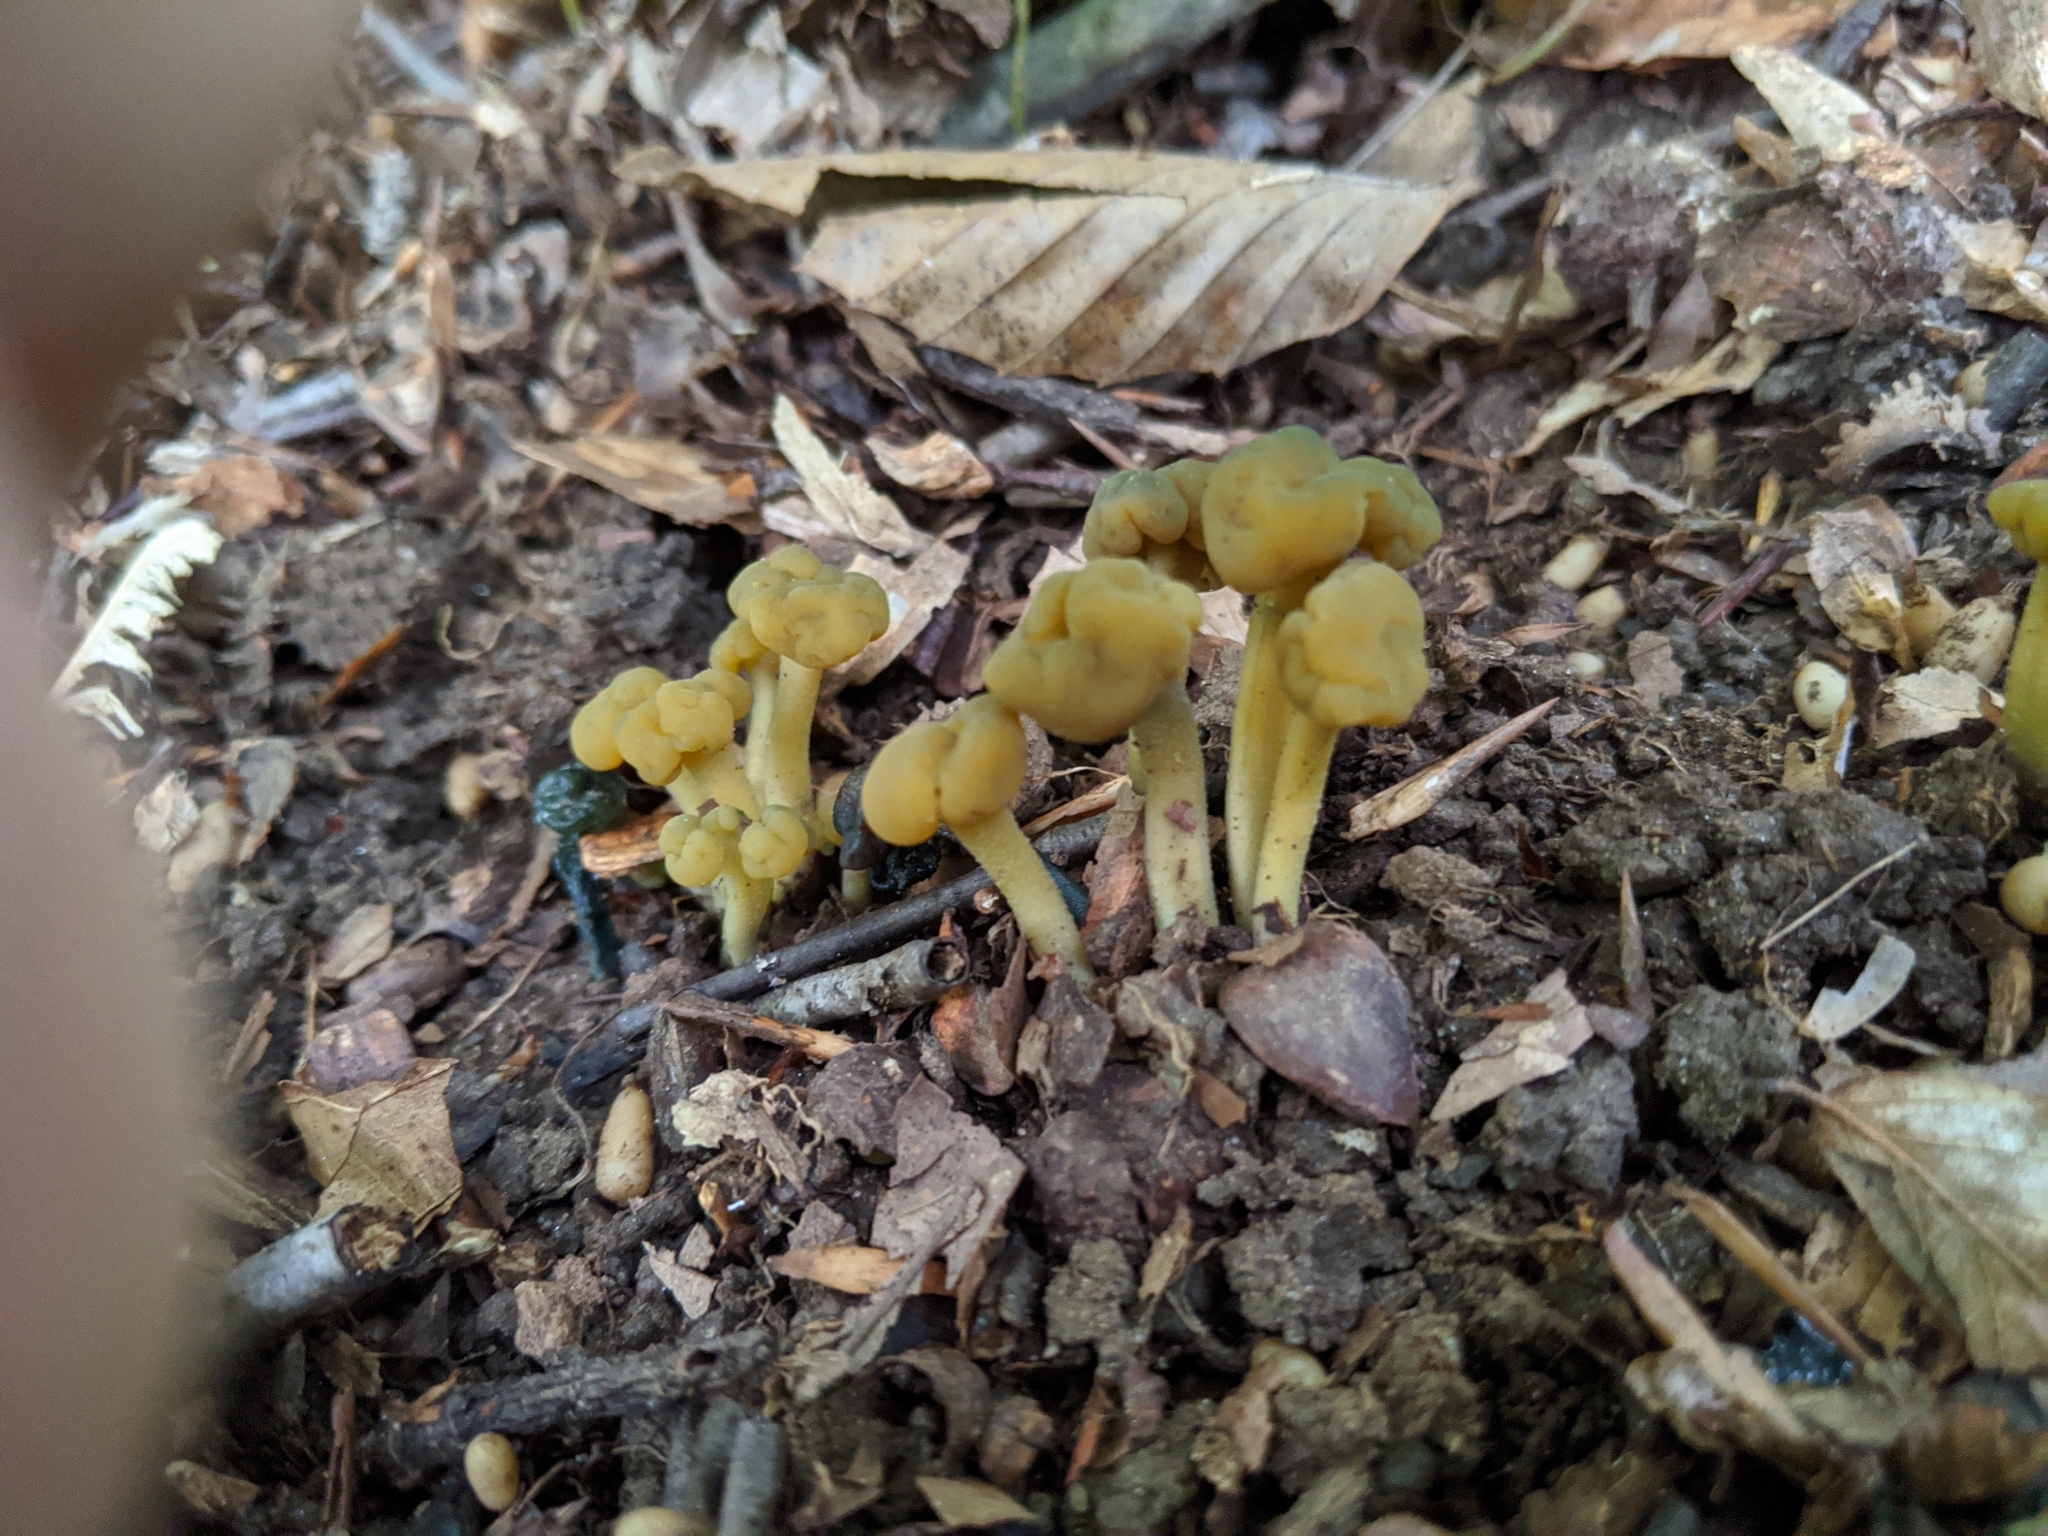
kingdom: Fungi
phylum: Ascomycota
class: Leotiomycetes
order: Leotiales
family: Leotiaceae
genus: Leotia
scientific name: Leotia lubrica
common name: Jellybaby
